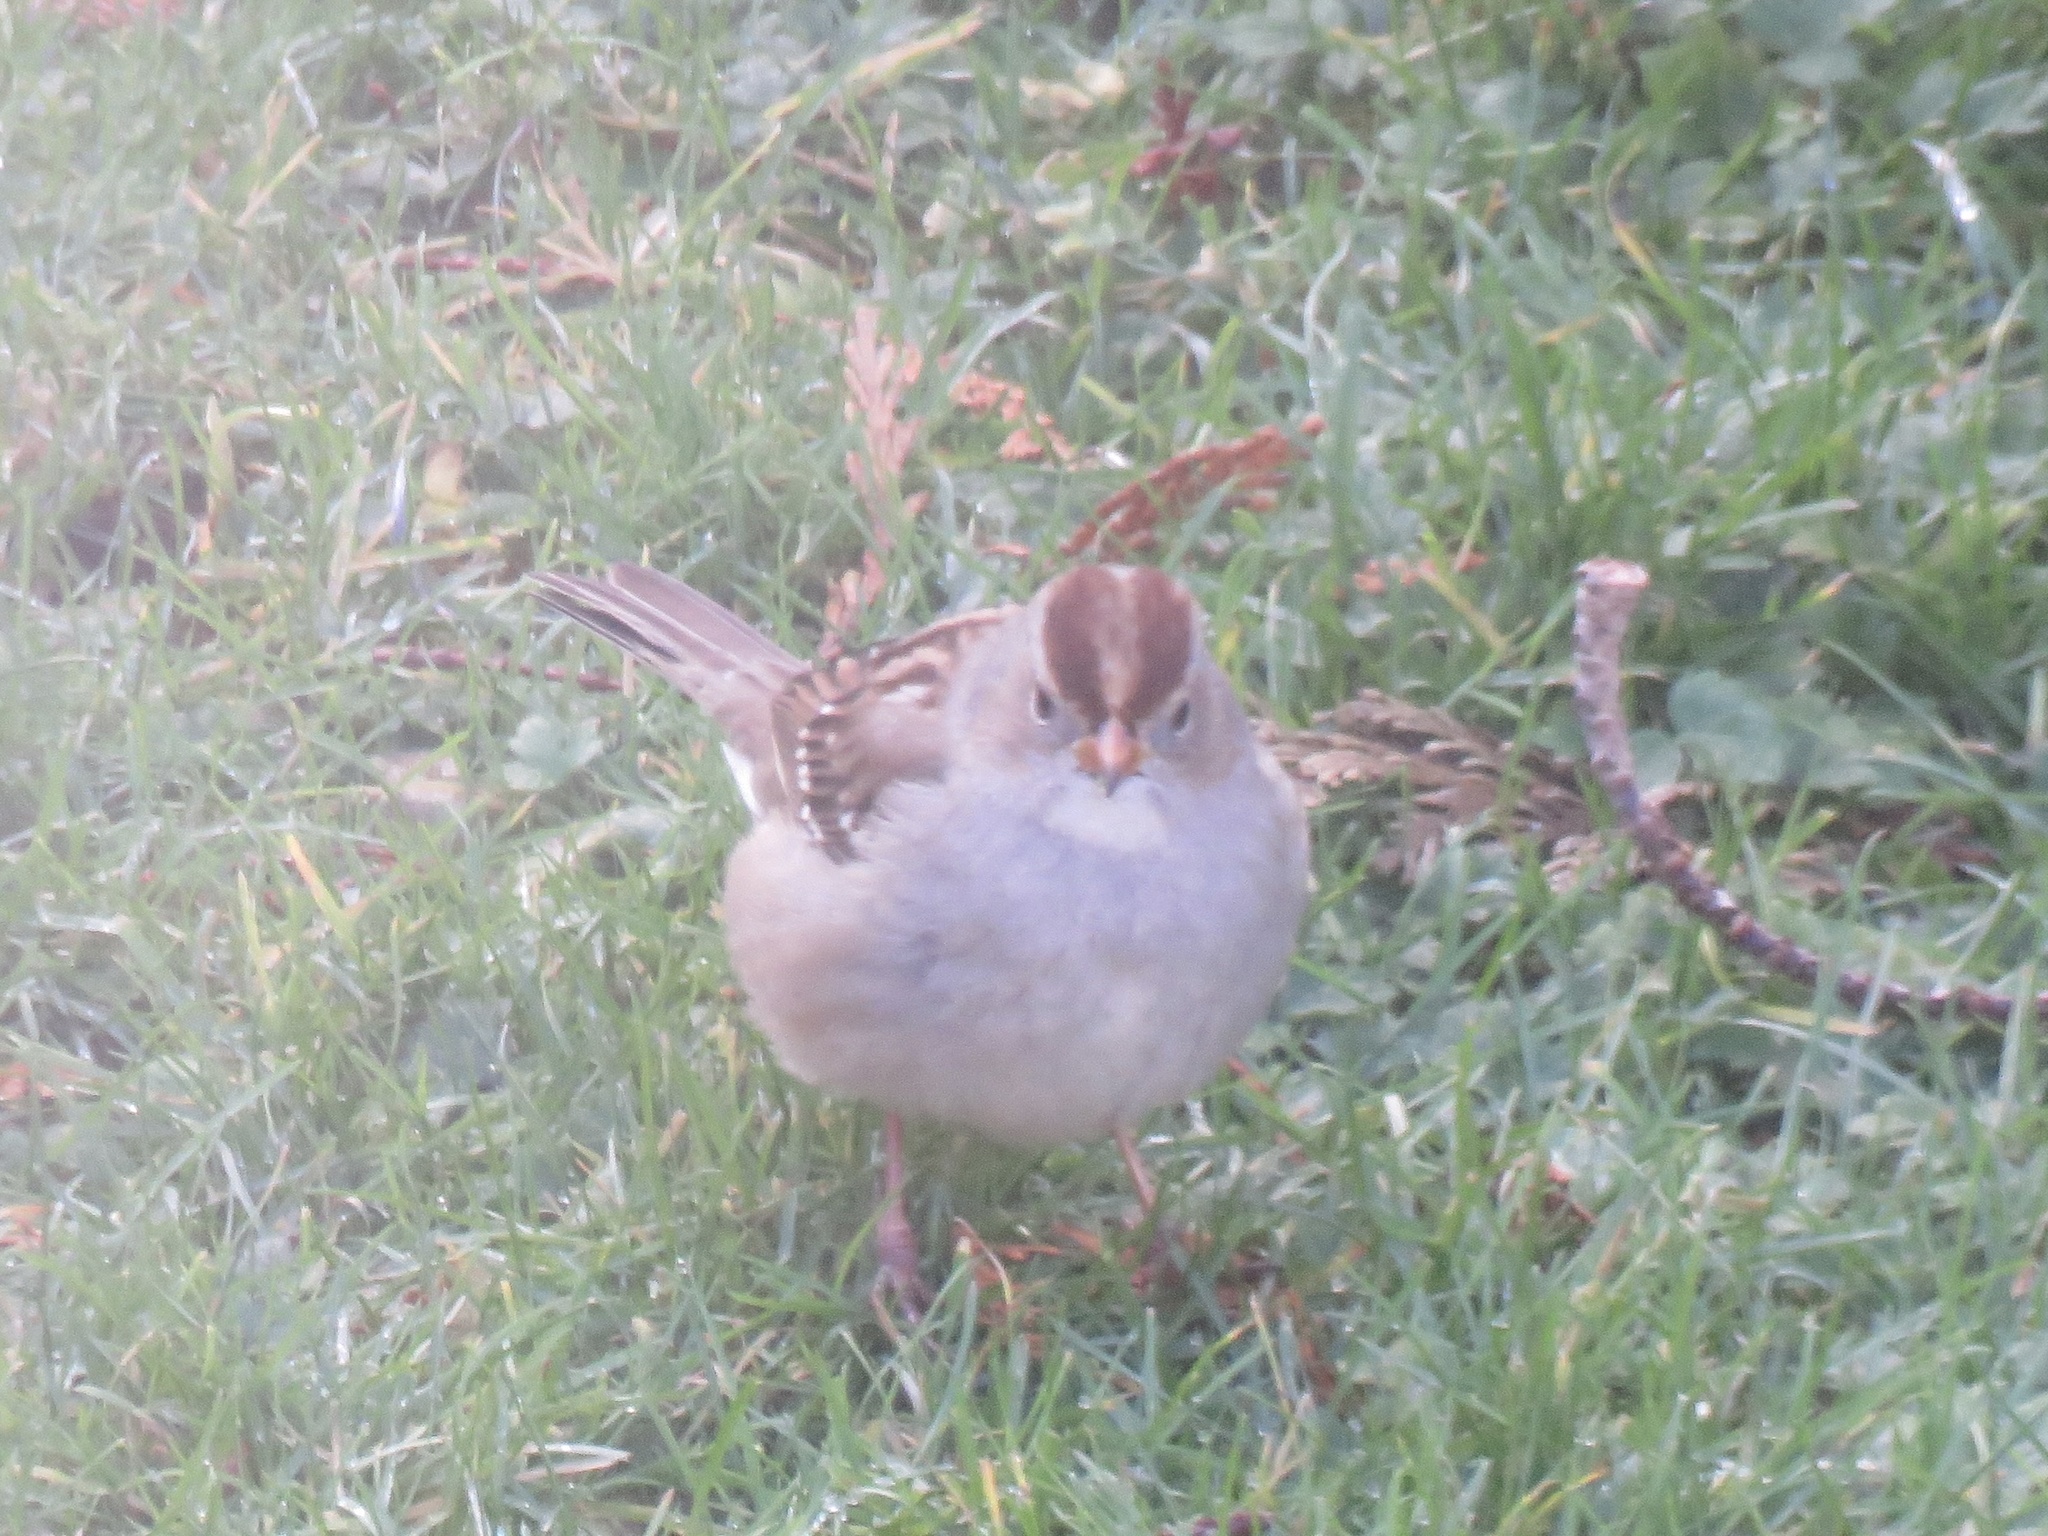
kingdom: Animalia
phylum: Chordata
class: Aves
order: Passeriformes
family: Passerellidae
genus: Zonotrichia
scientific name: Zonotrichia leucophrys
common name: White-crowned sparrow
